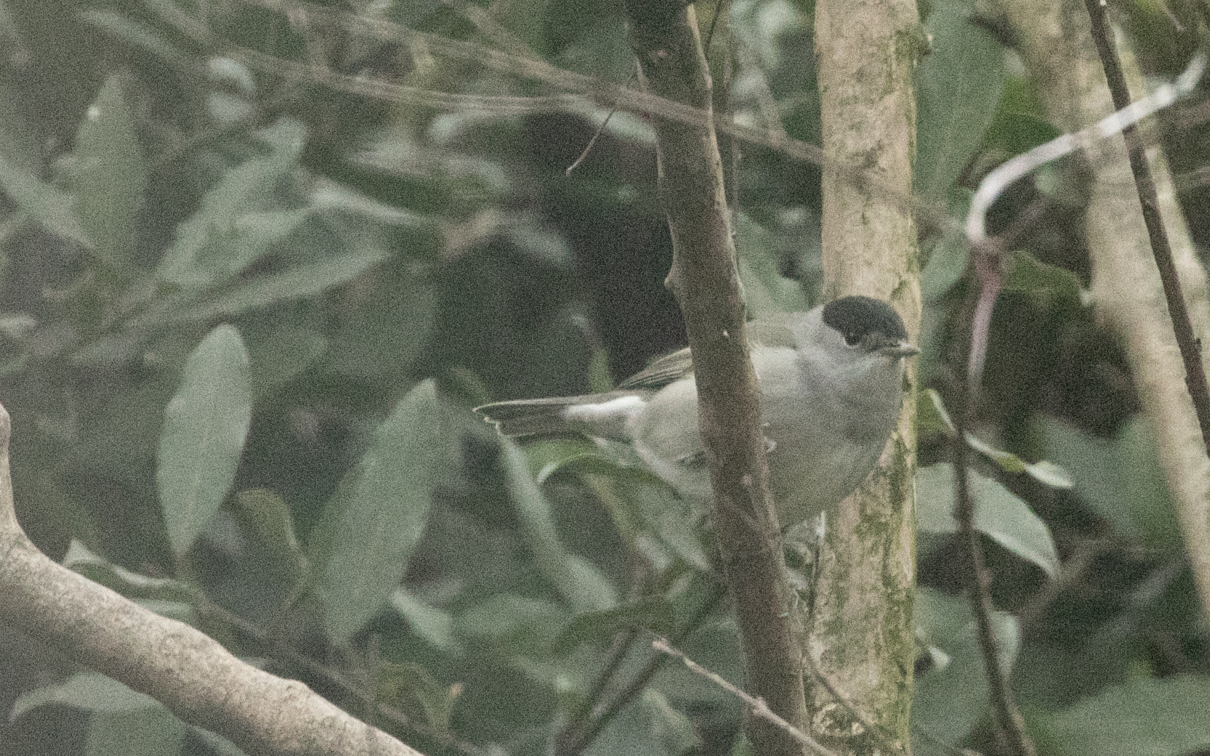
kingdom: Animalia
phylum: Chordata
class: Aves
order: Passeriformes
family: Sylviidae
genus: Sylvia
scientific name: Sylvia atricapilla
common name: Eurasian blackcap
